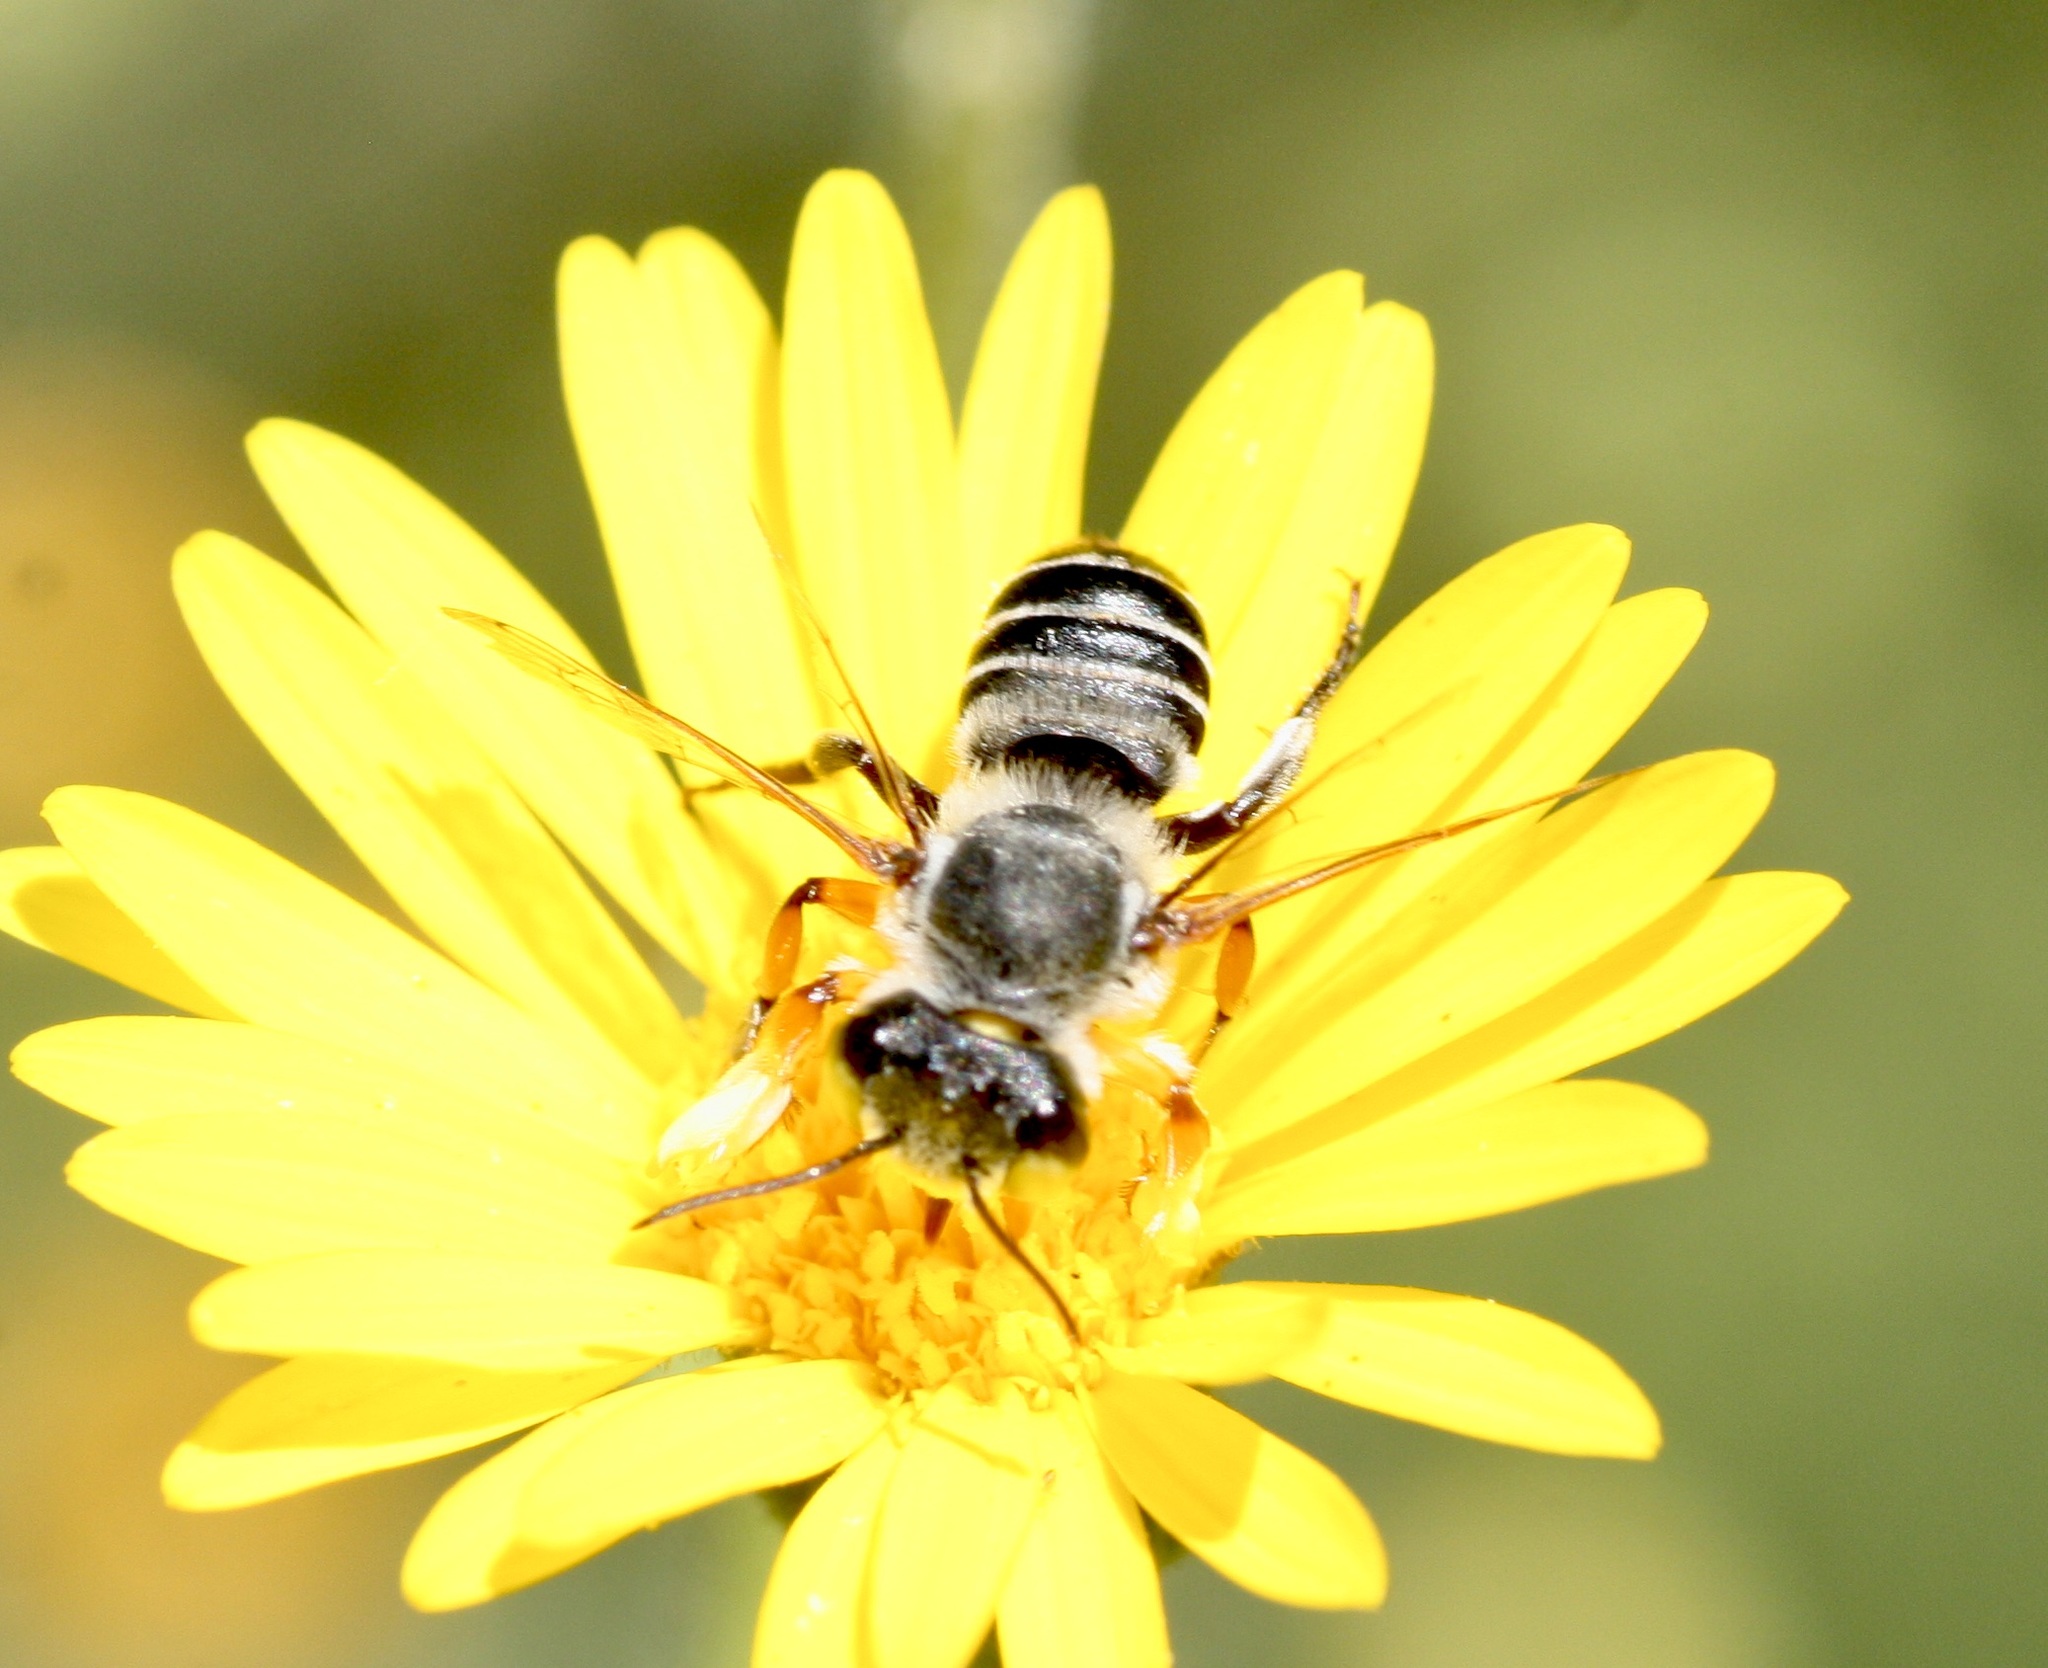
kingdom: Animalia
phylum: Arthropoda
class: Insecta
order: Hymenoptera
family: Megachilidae
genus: Megachile
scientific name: Megachile policaris
